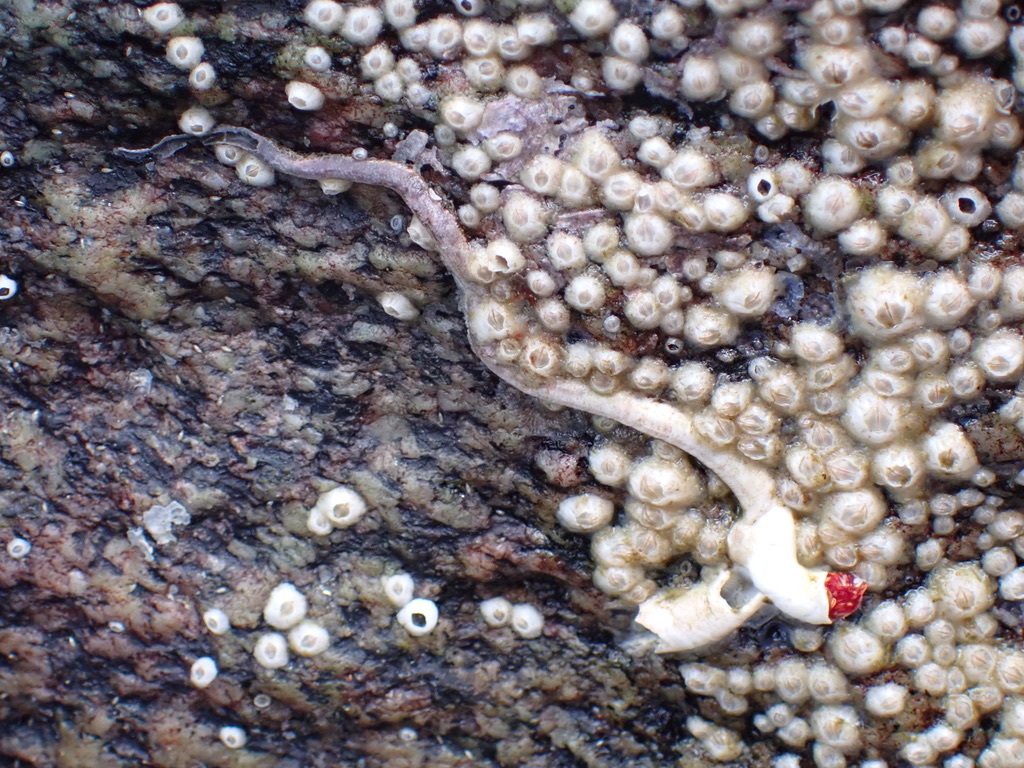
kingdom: Animalia
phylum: Annelida
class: Polychaeta
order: Sabellida
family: Serpulidae
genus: Serpula
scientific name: Serpula columbiana
